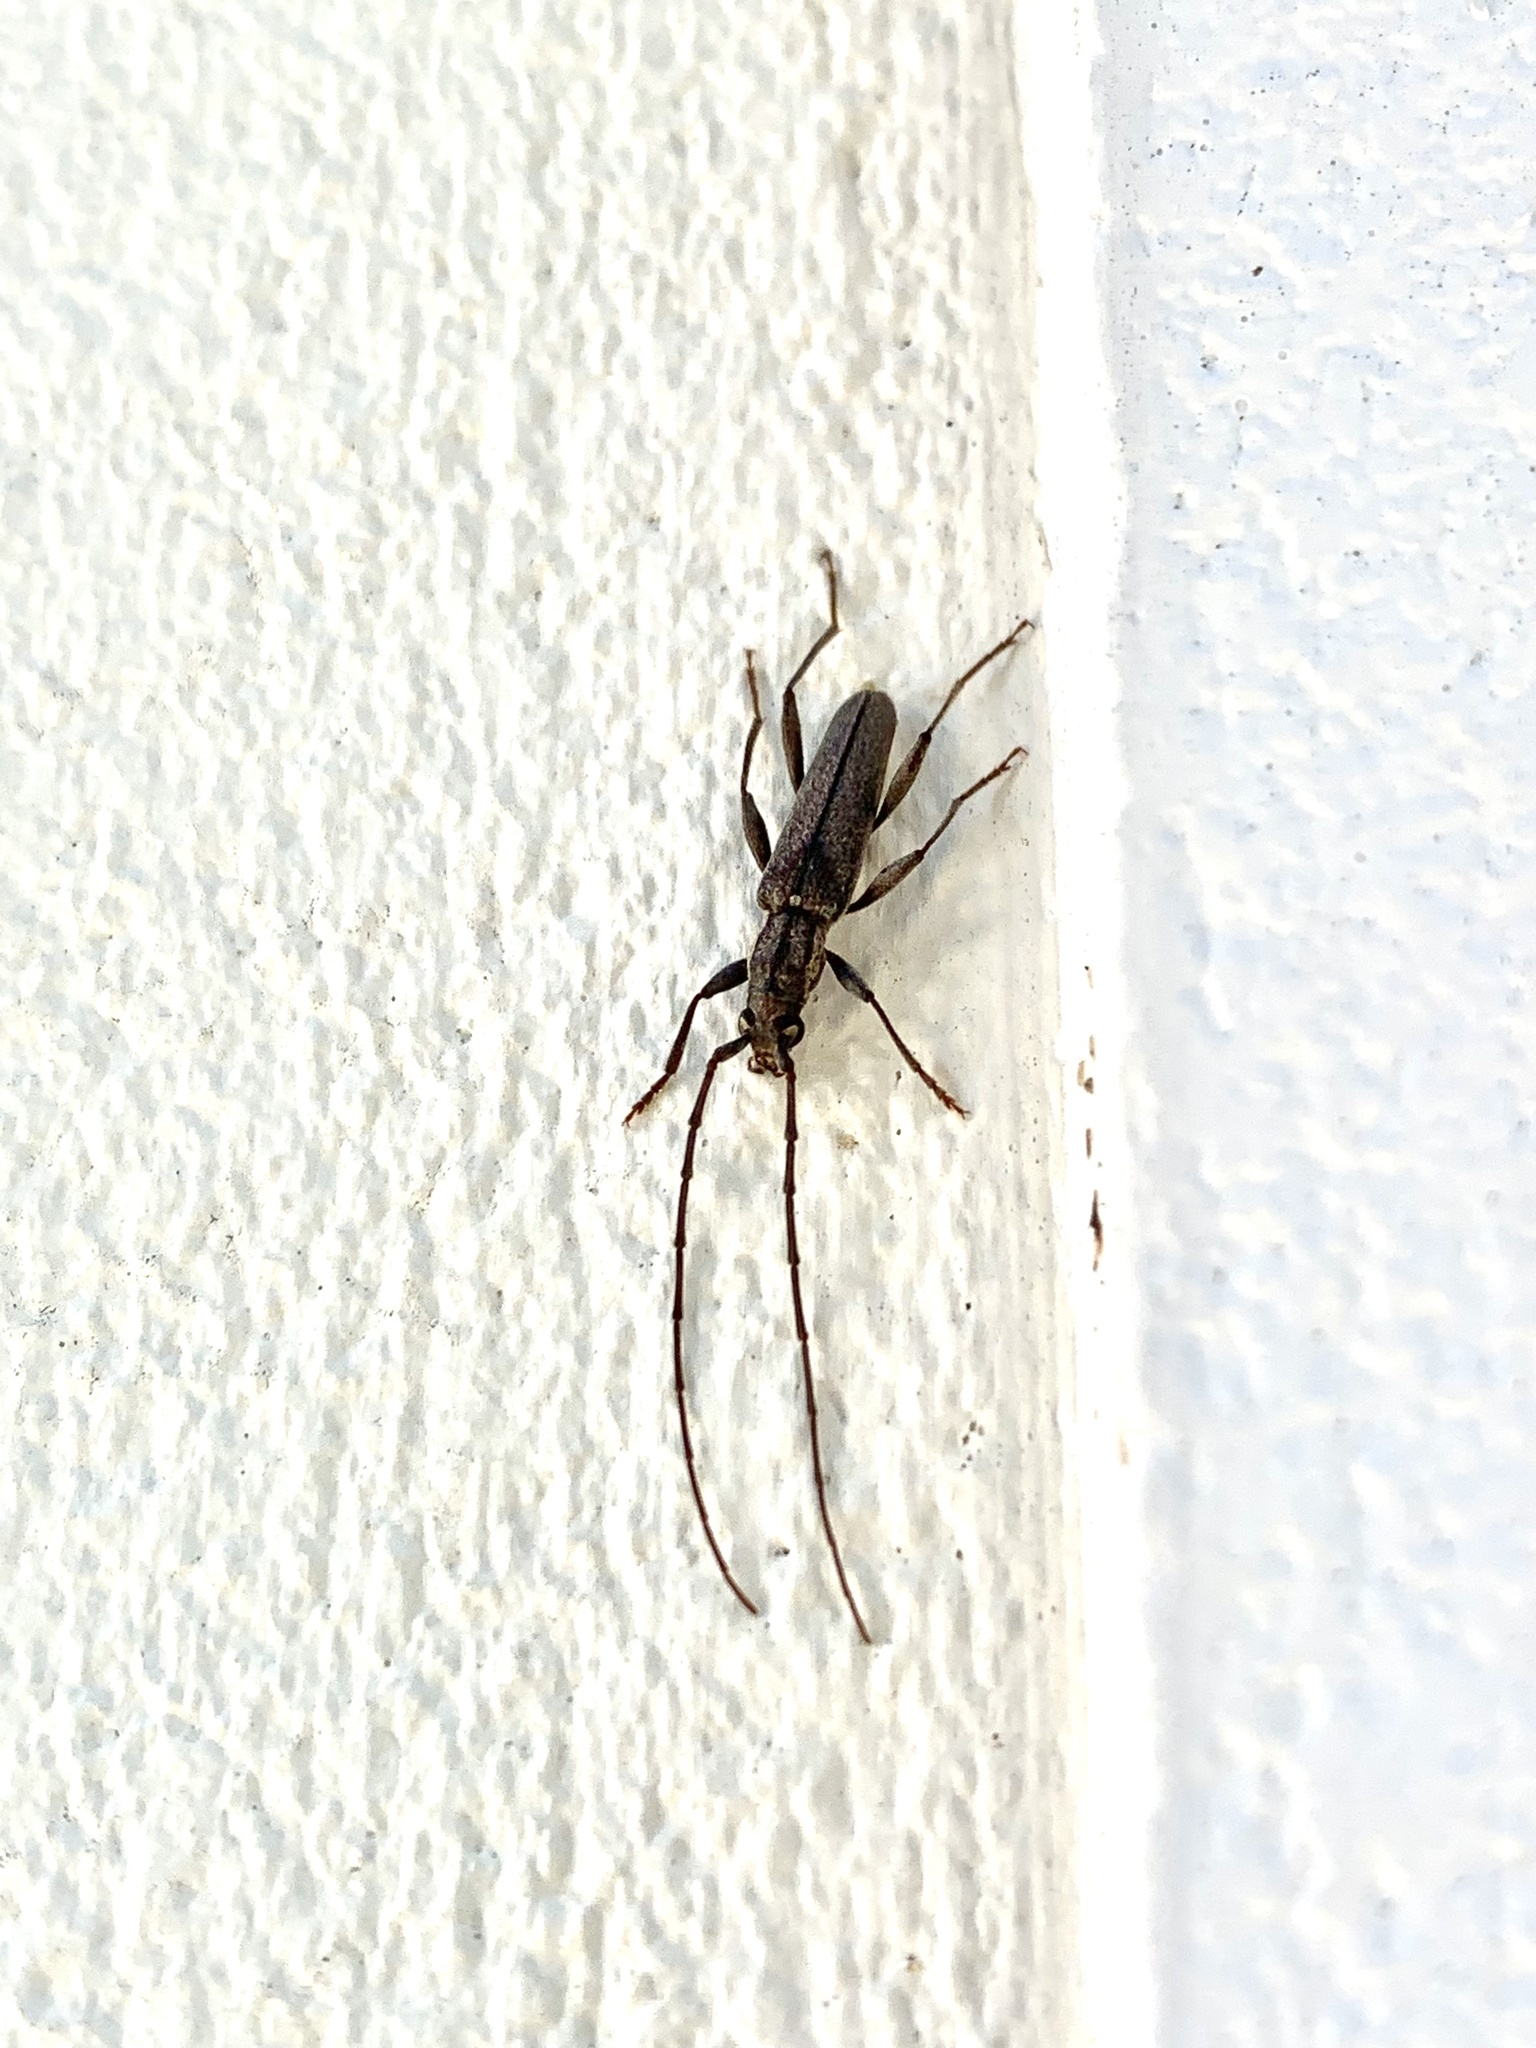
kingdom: Animalia
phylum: Arthropoda
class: Insecta
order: Coleoptera
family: Cerambycidae
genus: Icosium
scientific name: Icosium tomentosum
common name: Longhorn beetle
